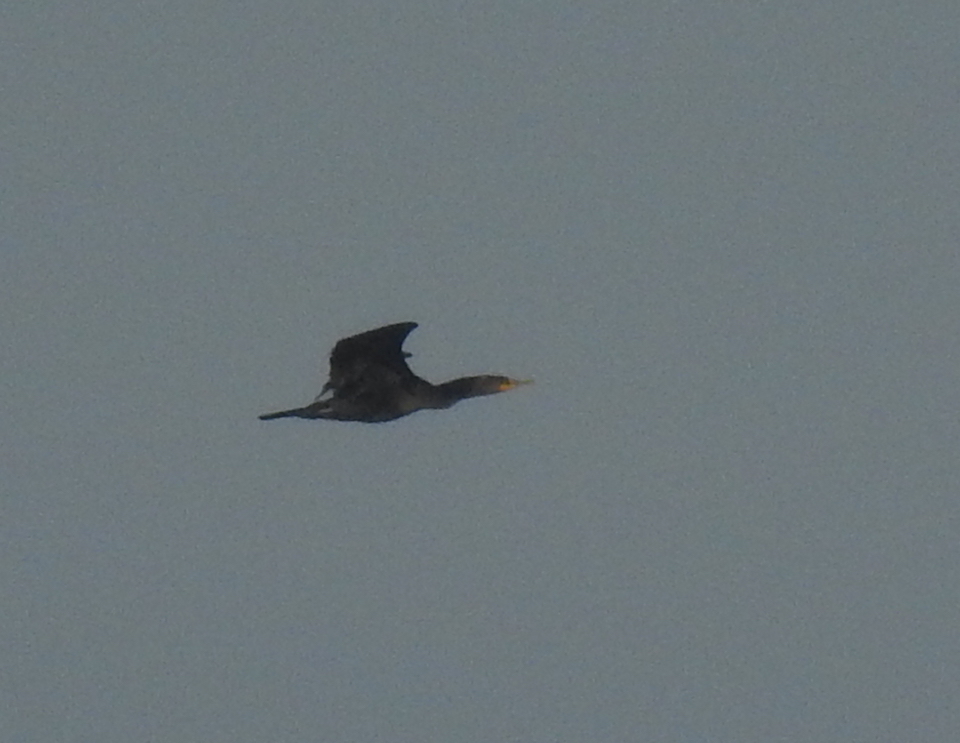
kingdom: Animalia
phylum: Chordata
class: Aves
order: Suliformes
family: Phalacrocoracidae
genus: Phalacrocorax
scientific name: Phalacrocorax auritus
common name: Double-crested cormorant
